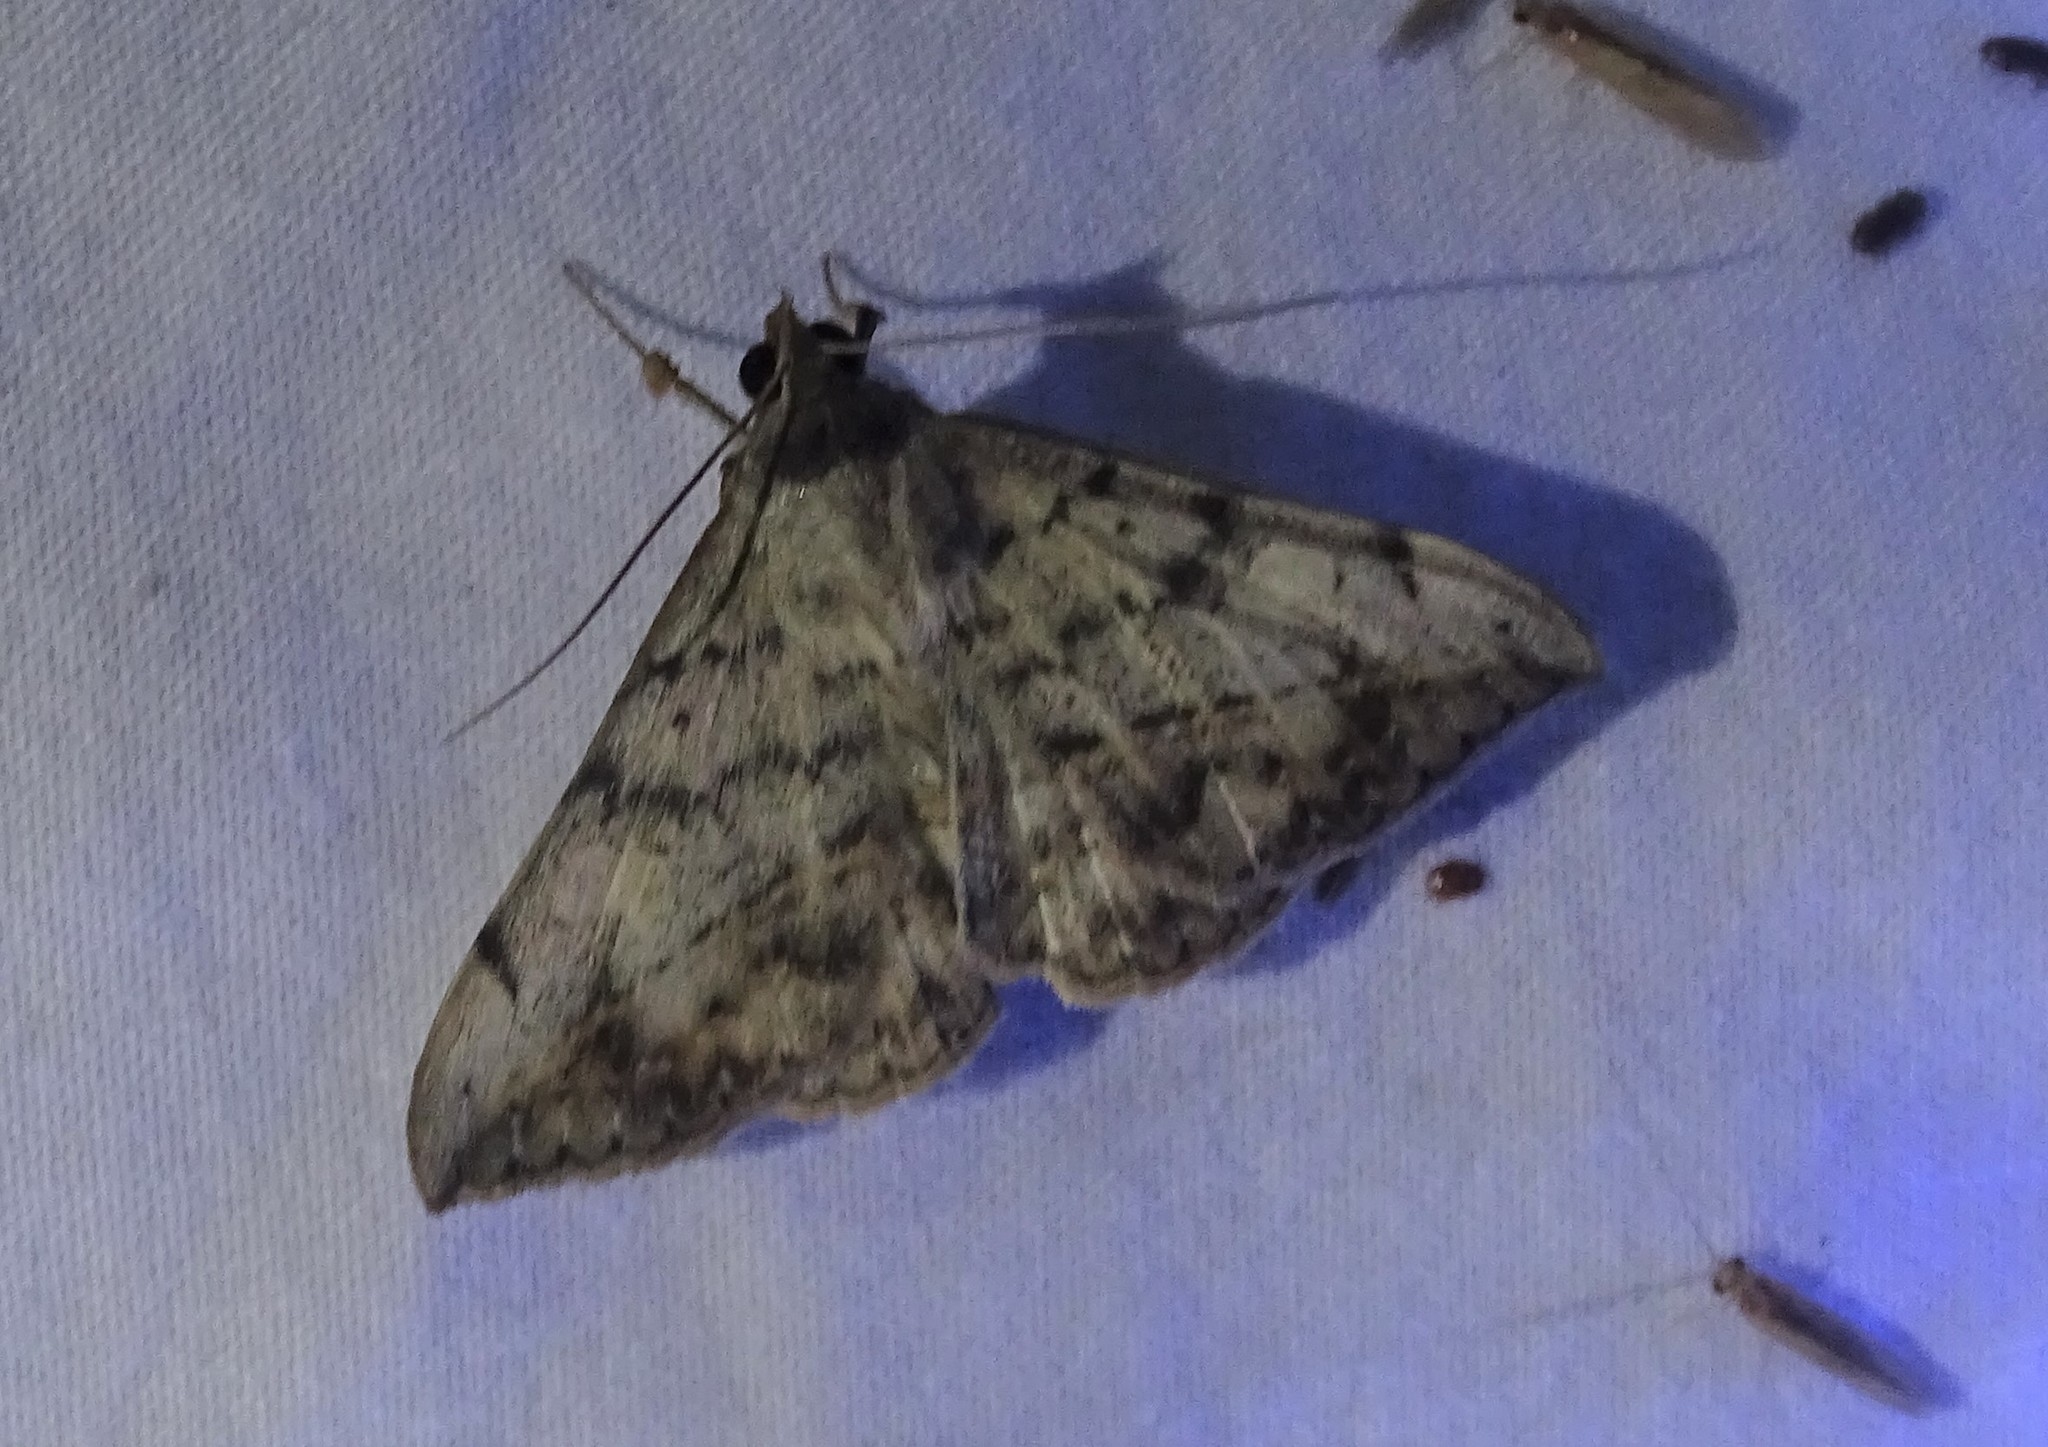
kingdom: Animalia
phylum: Arthropoda
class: Insecta
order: Lepidoptera
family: Erebidae
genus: Anticarsia
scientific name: Anticarsia gemmatalis
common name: Cutworm moth
